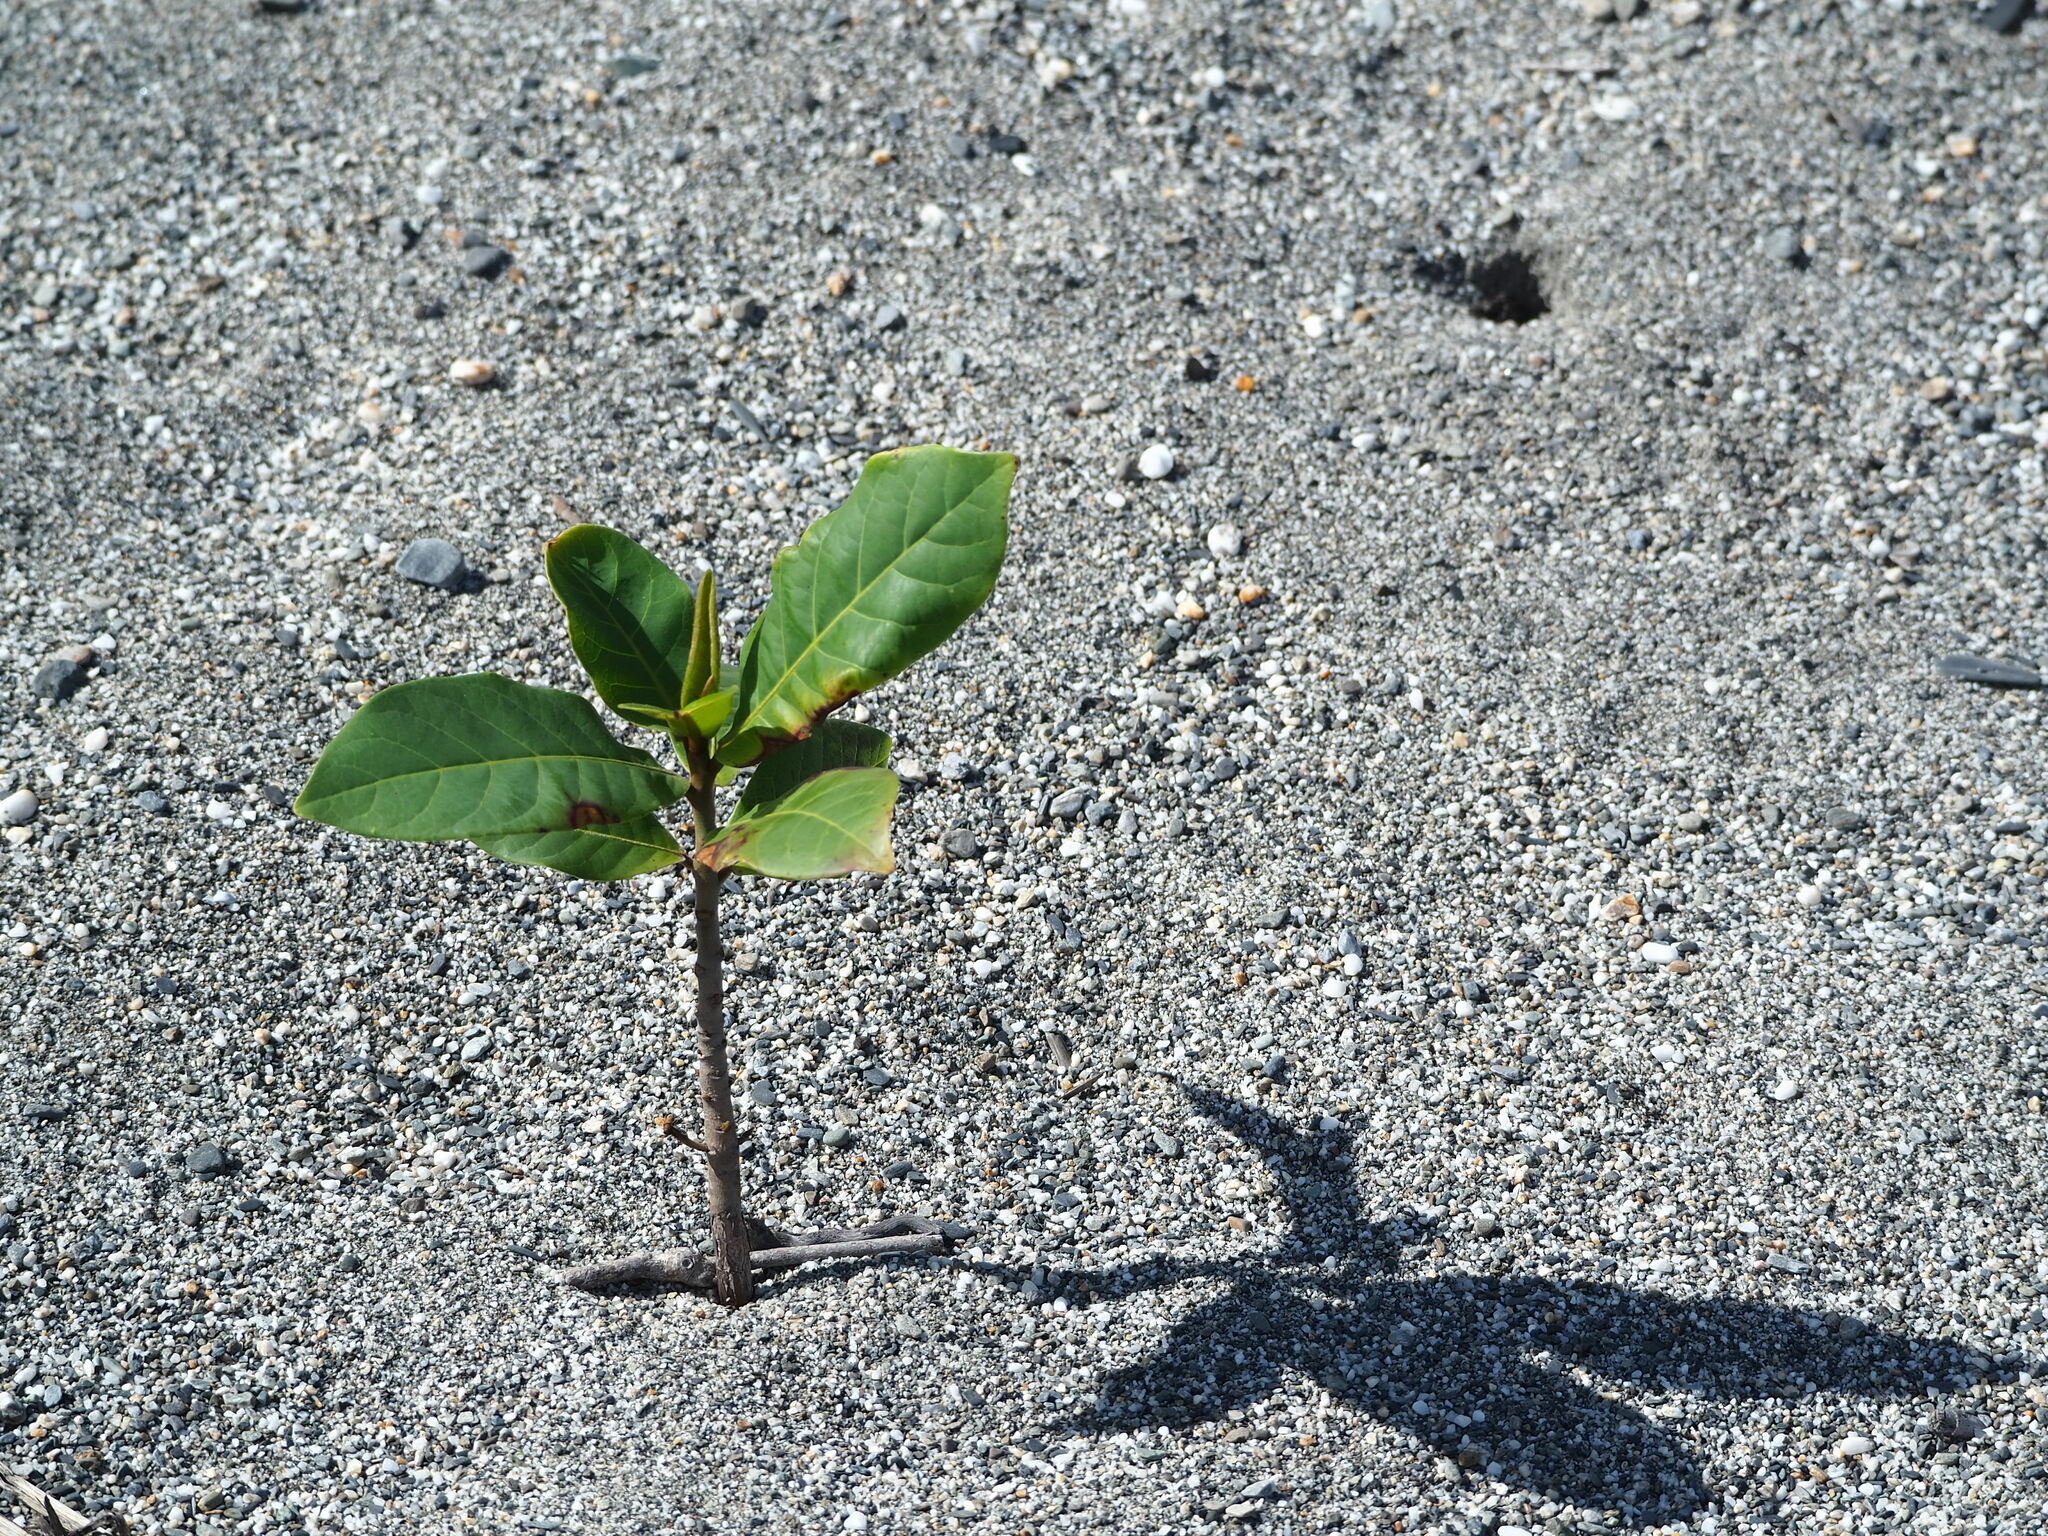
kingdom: Plantae
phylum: Tracheophyta
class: Magnoliopsida
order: Myrtales
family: Combretaceae
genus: Terminalia
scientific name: Terminalia catappa
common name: Tropical almond
